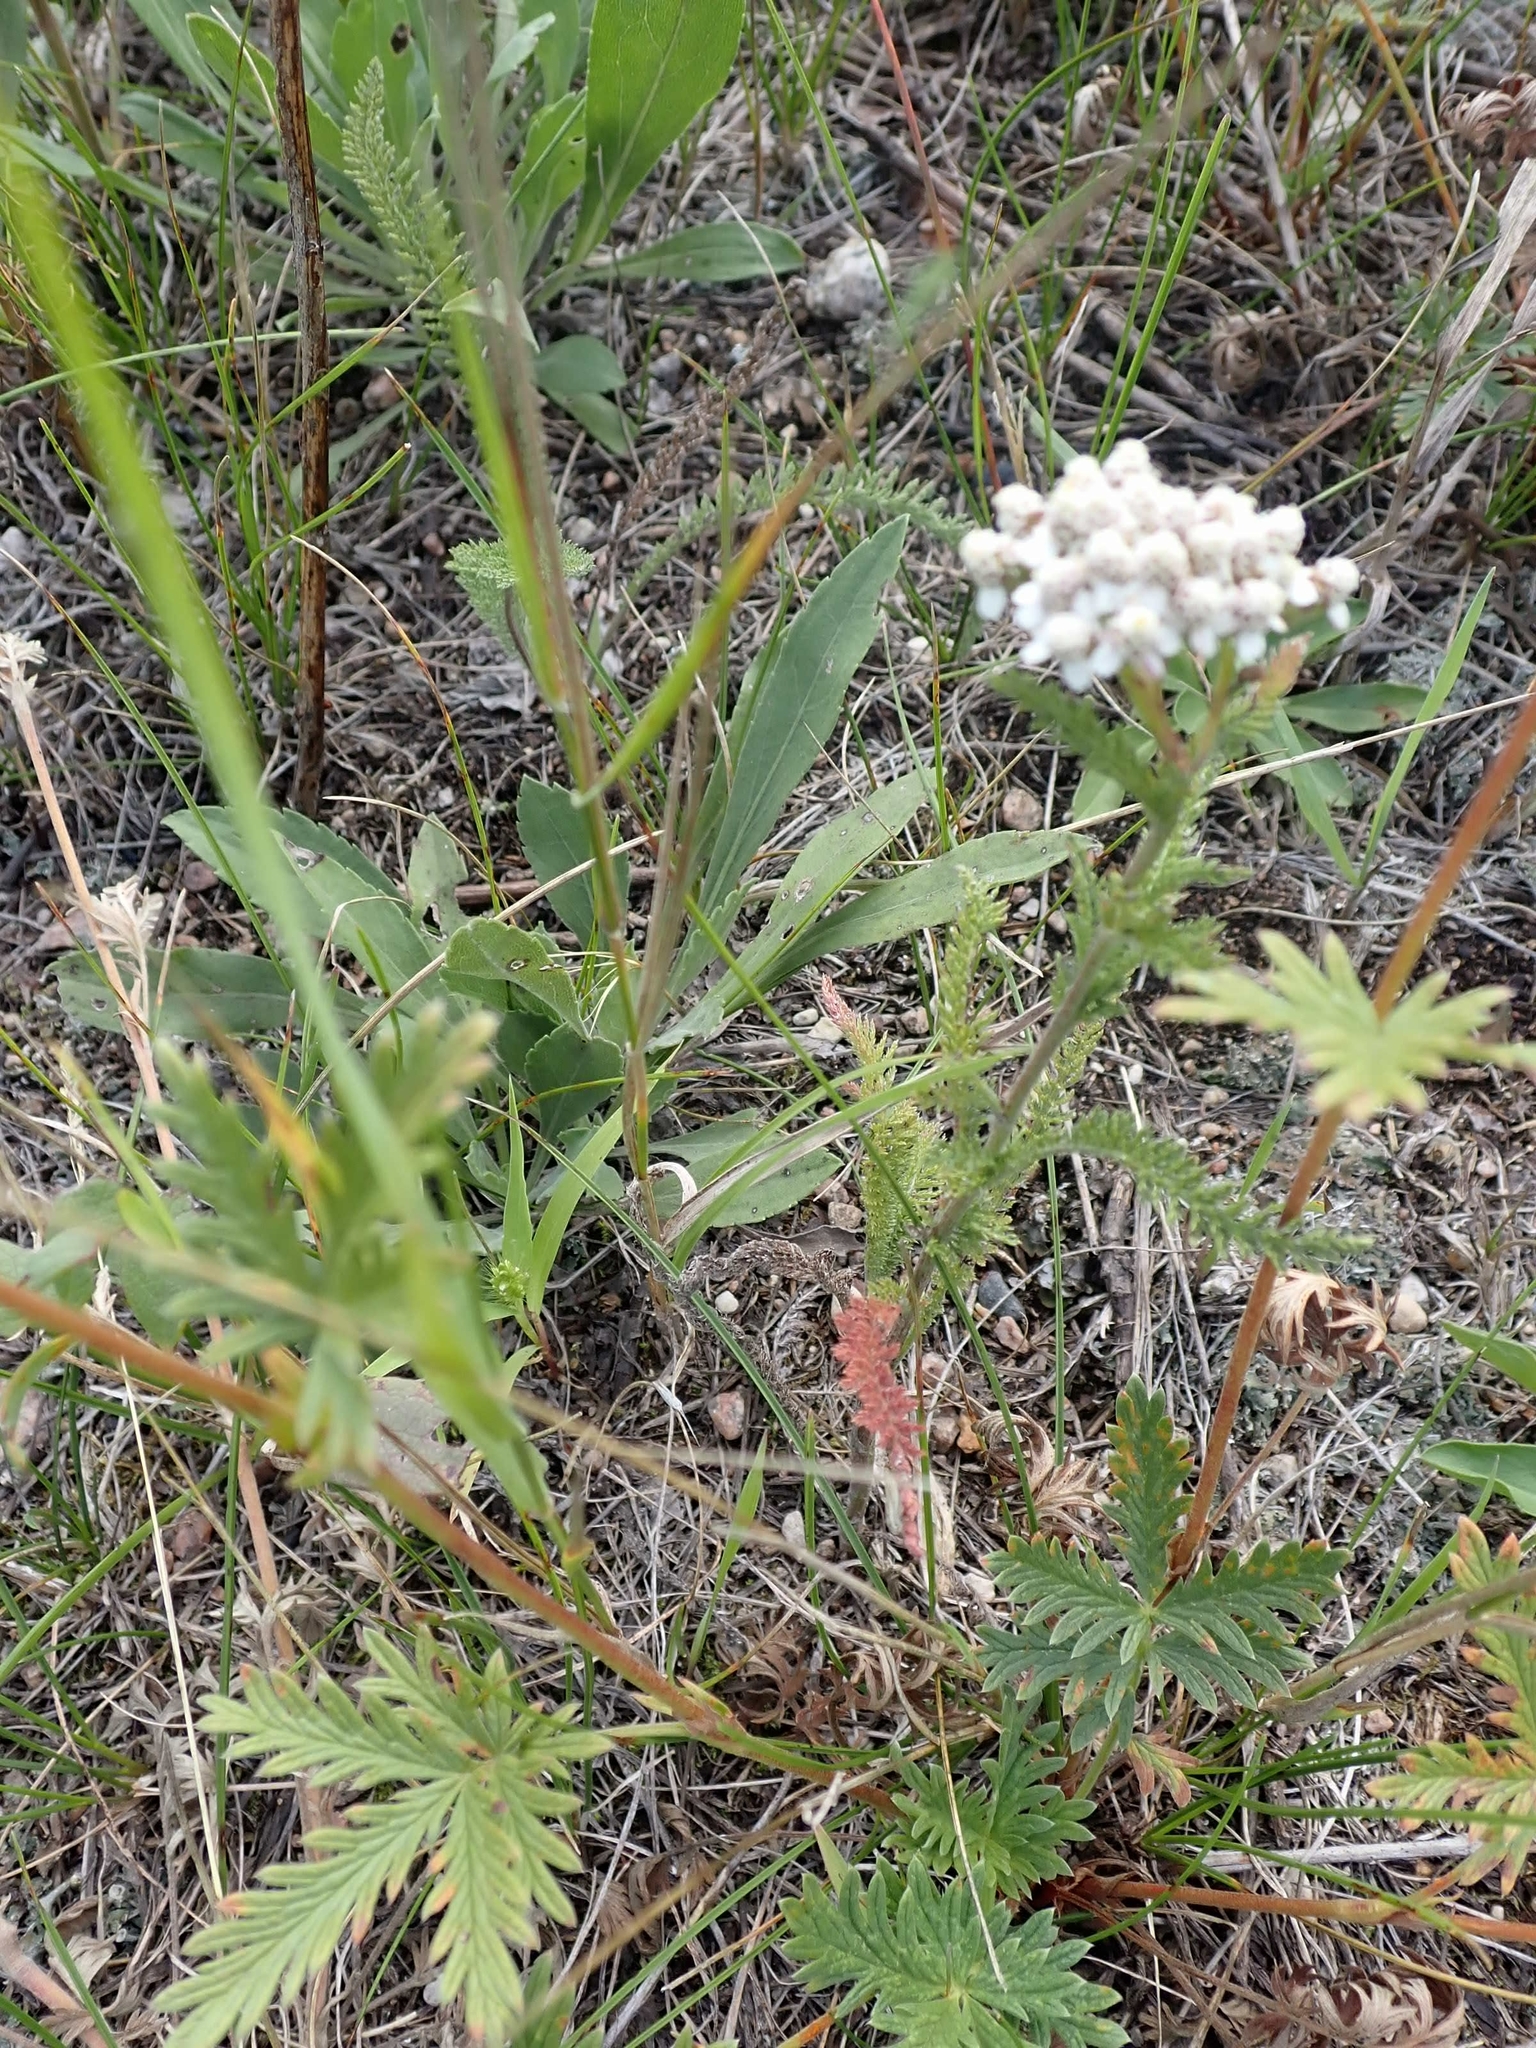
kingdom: Plantae
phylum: Tracheophyta
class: Magnoliopsida
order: Asterales
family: Asteraceae
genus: Achillea
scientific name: Achillea millefolium
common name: Yarrow
